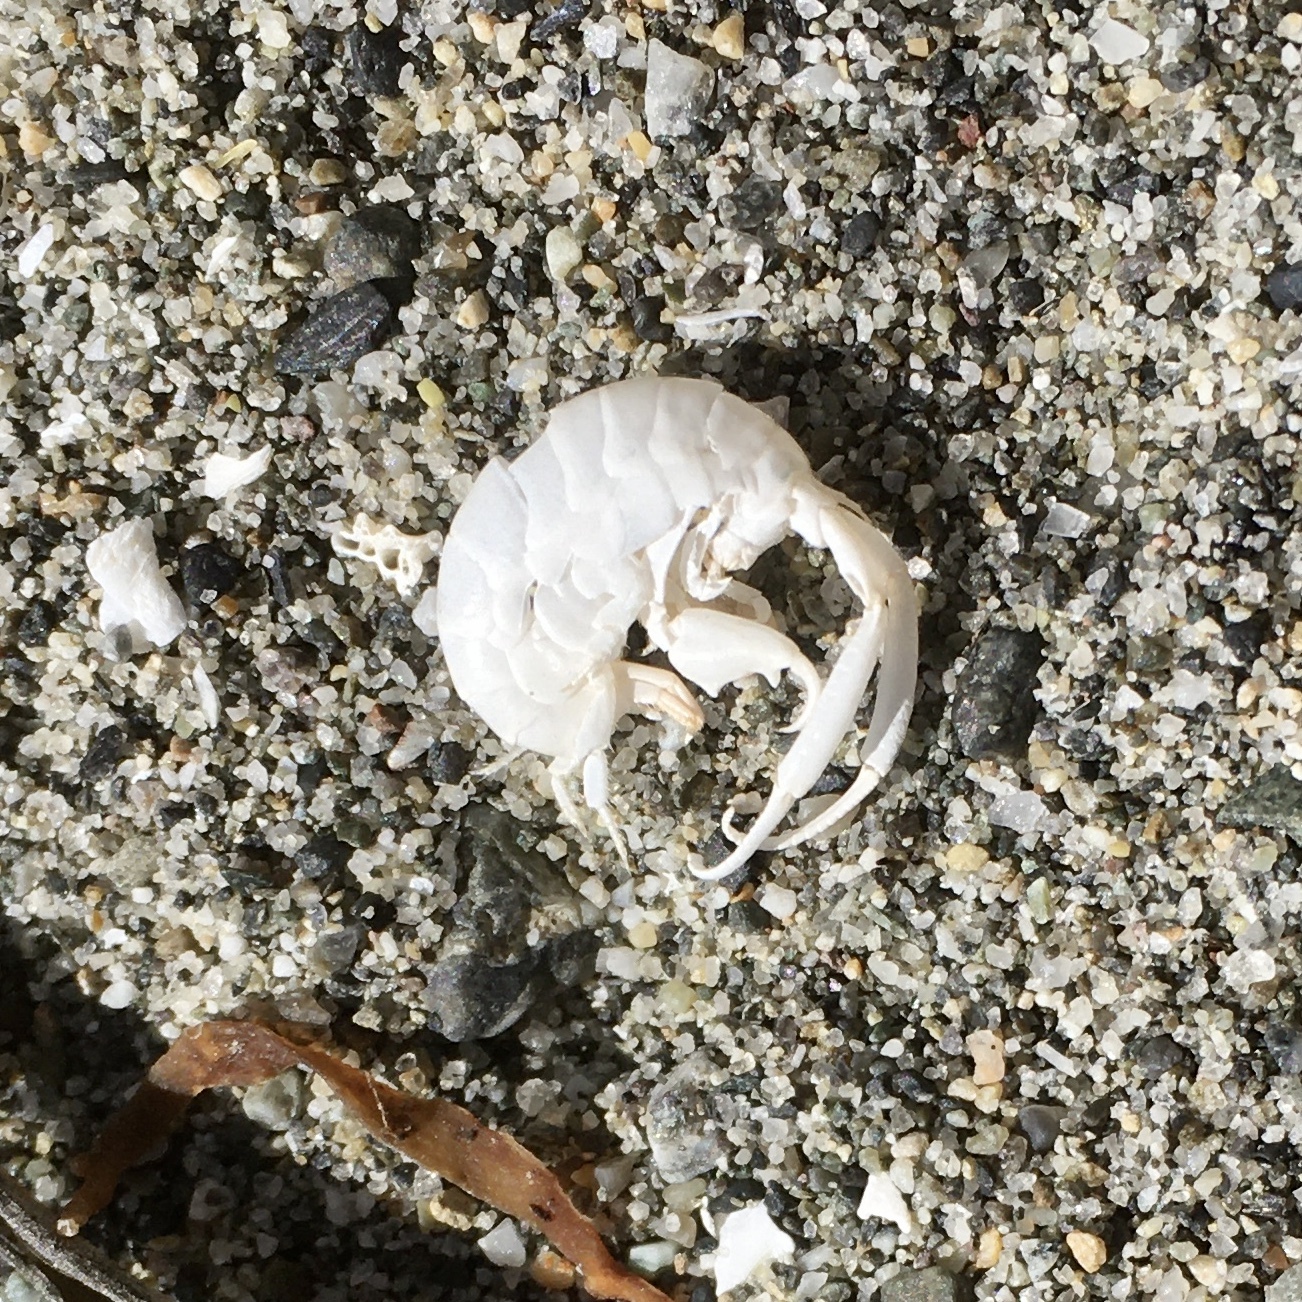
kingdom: Animalia
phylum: Arthropoda
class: Malacostraca
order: Amphipoda
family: Talitridae
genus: Megalorchestia
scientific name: Megalorchestia pugettensis
